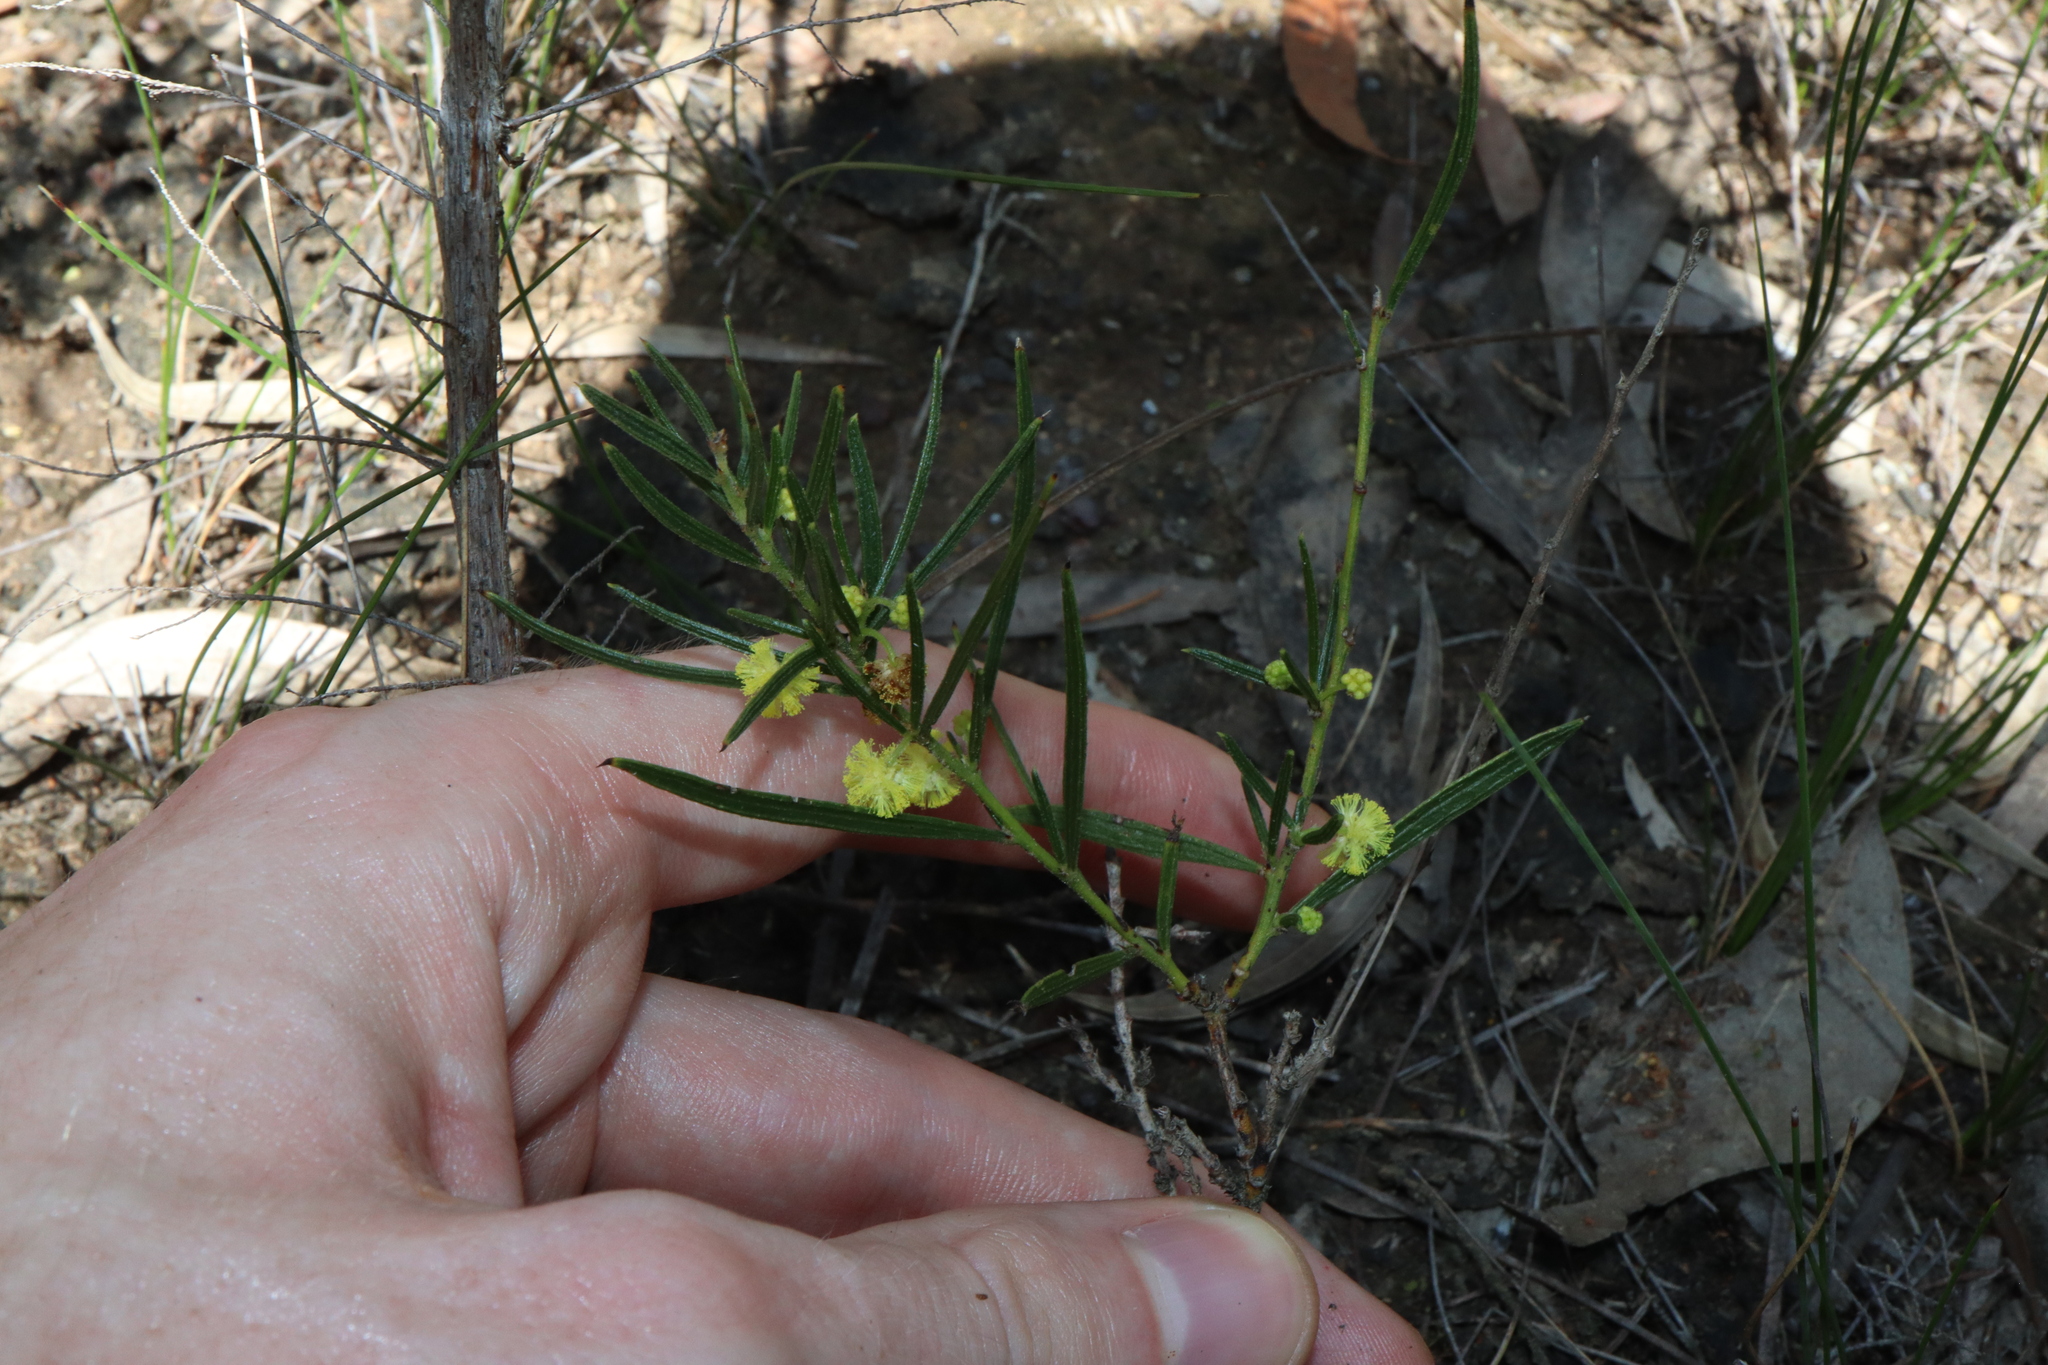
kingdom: Plantae
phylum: Tracheophyta
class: Magnoliopsida
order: Fabales
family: Fabaceae
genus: Acacia
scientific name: Acacia bynoeana
